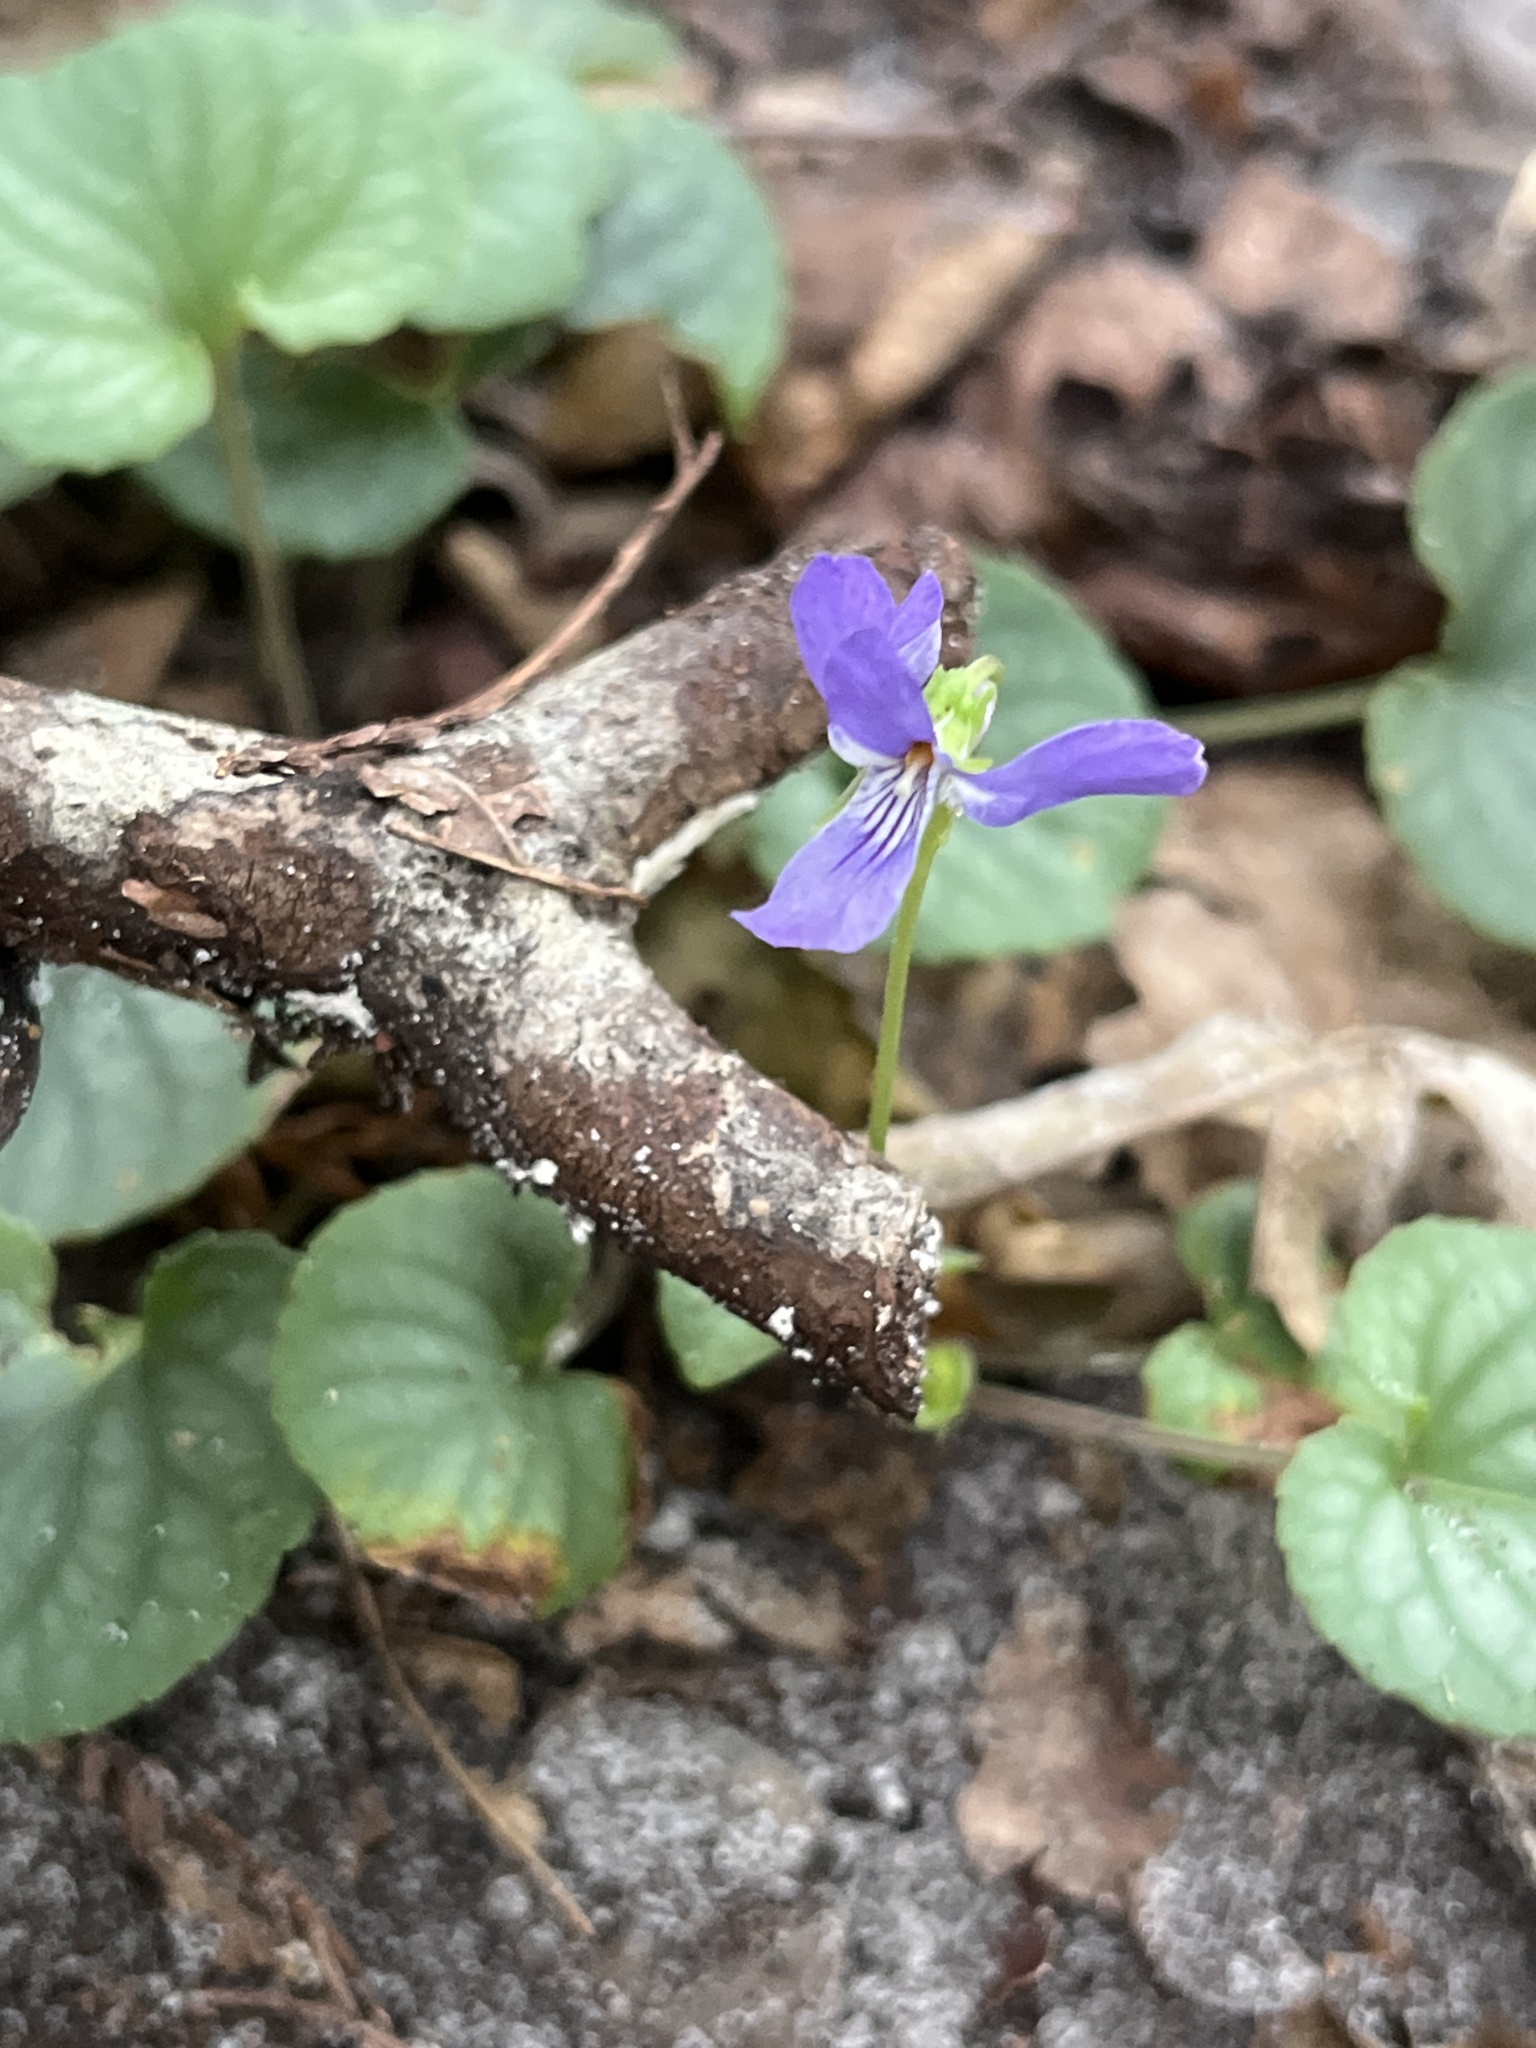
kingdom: Plantae
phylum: Tracheophyta
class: Magnoliopsida
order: Malpighiales
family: Violaceae
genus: Viola
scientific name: Viola walteri
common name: Prostrate southern violet
